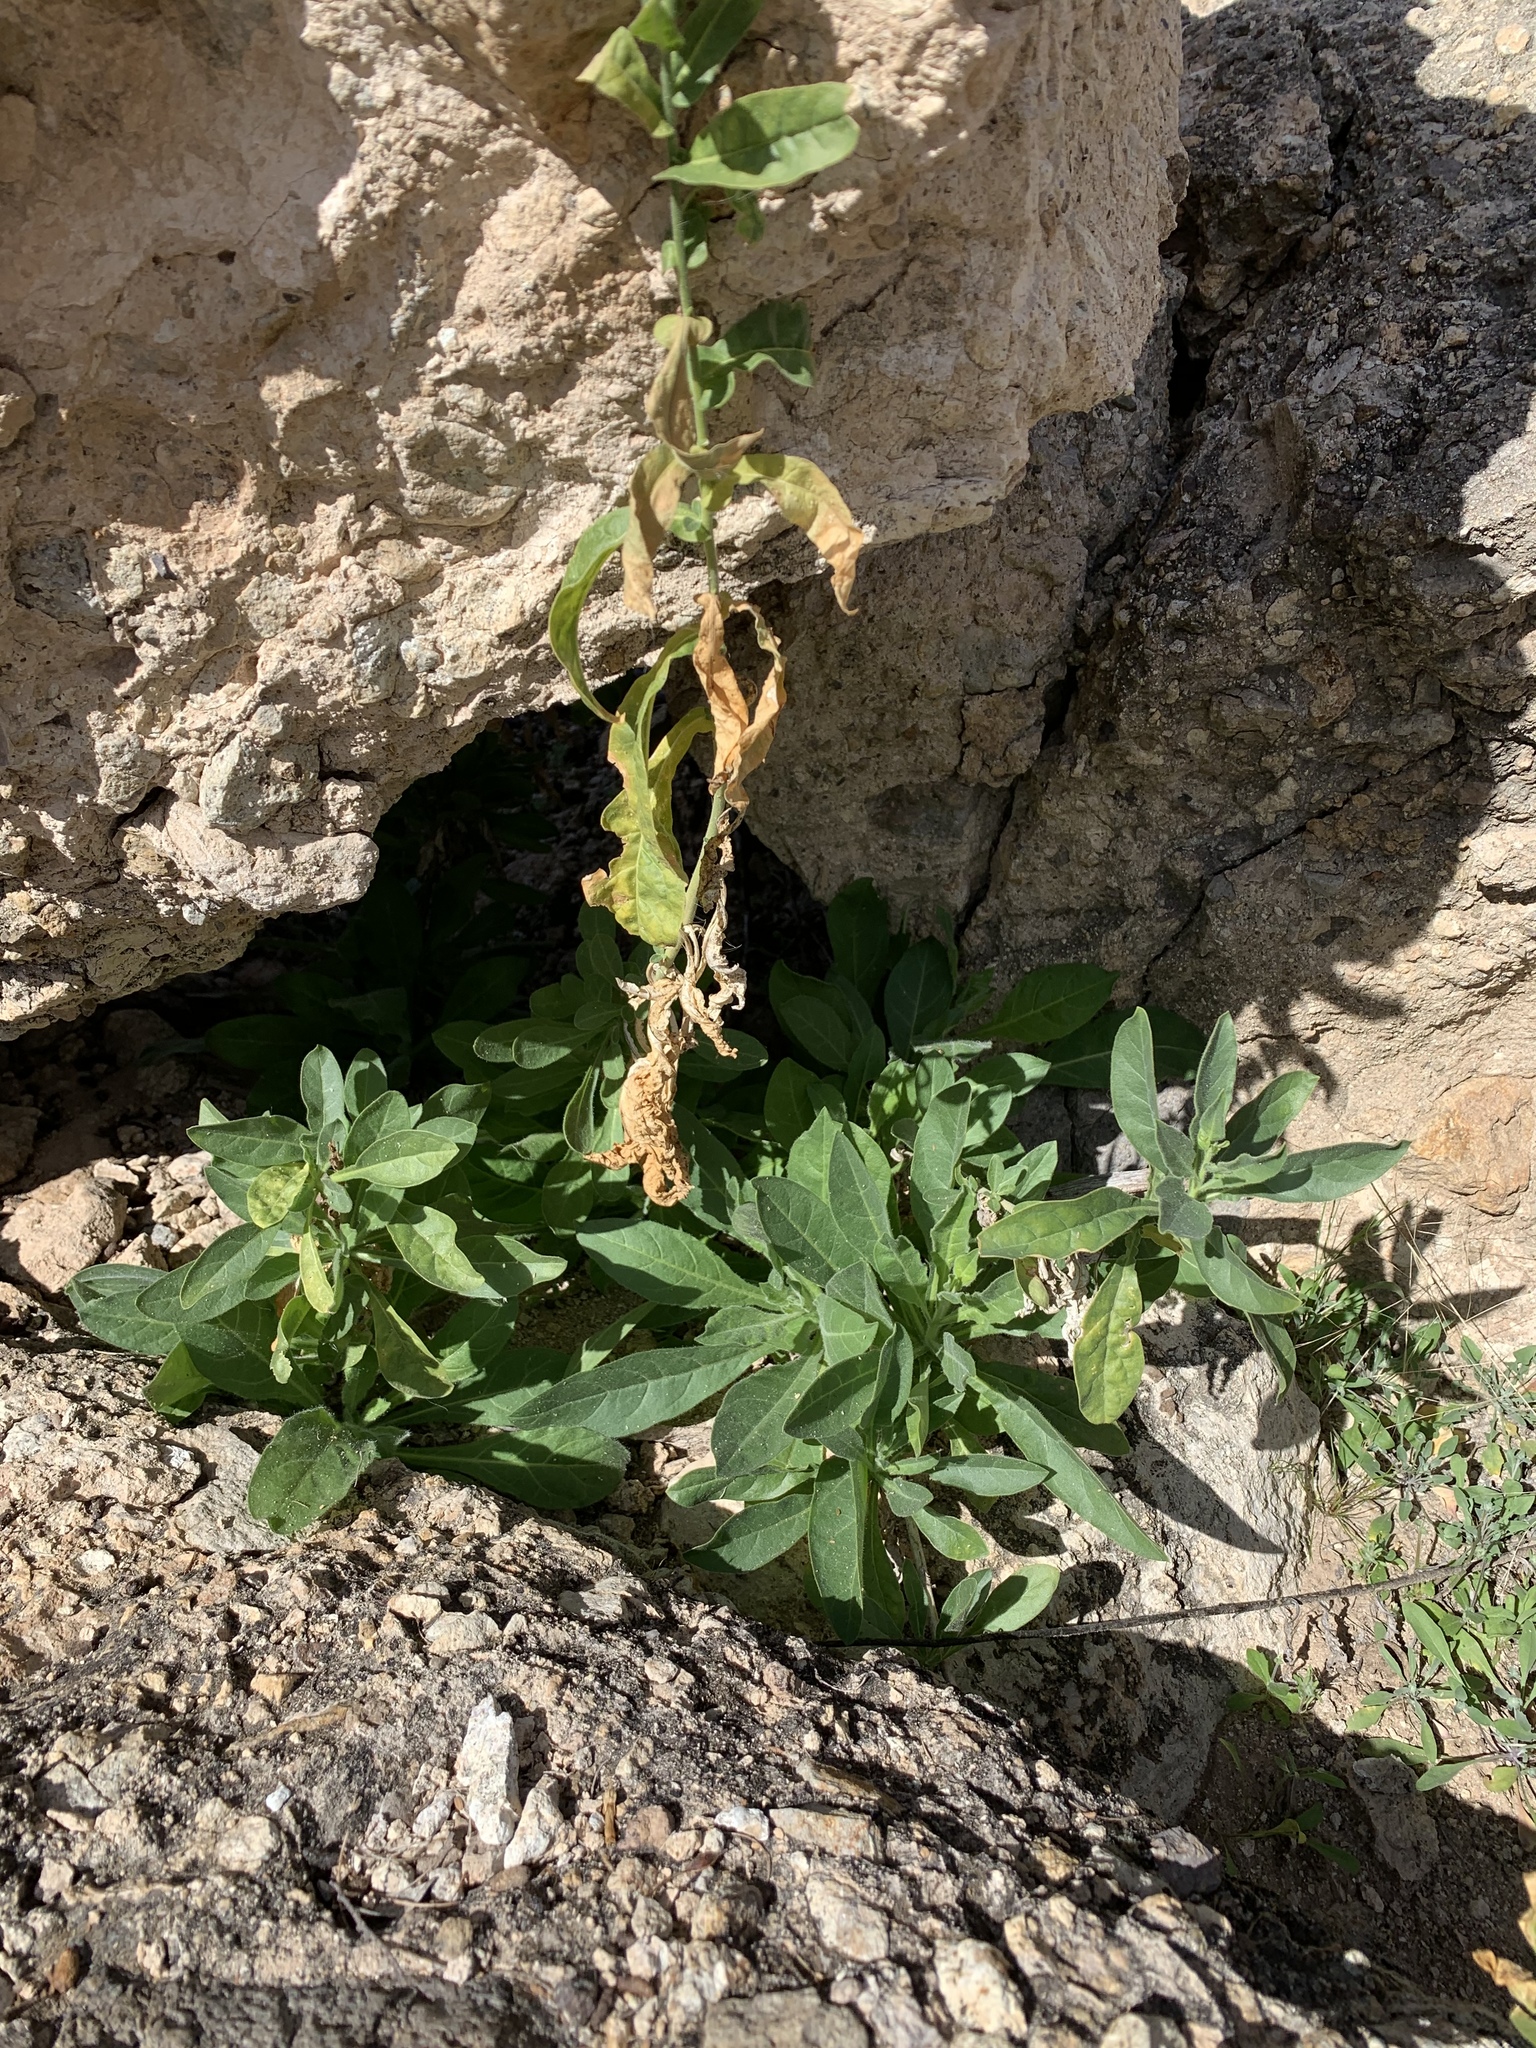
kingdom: Plantae
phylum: Tracheophyta
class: Magnoliopsida
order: Solanales
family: Solanaceae
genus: Nicotiana
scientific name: Nicotiana obtusifolia
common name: Desert tobacco
